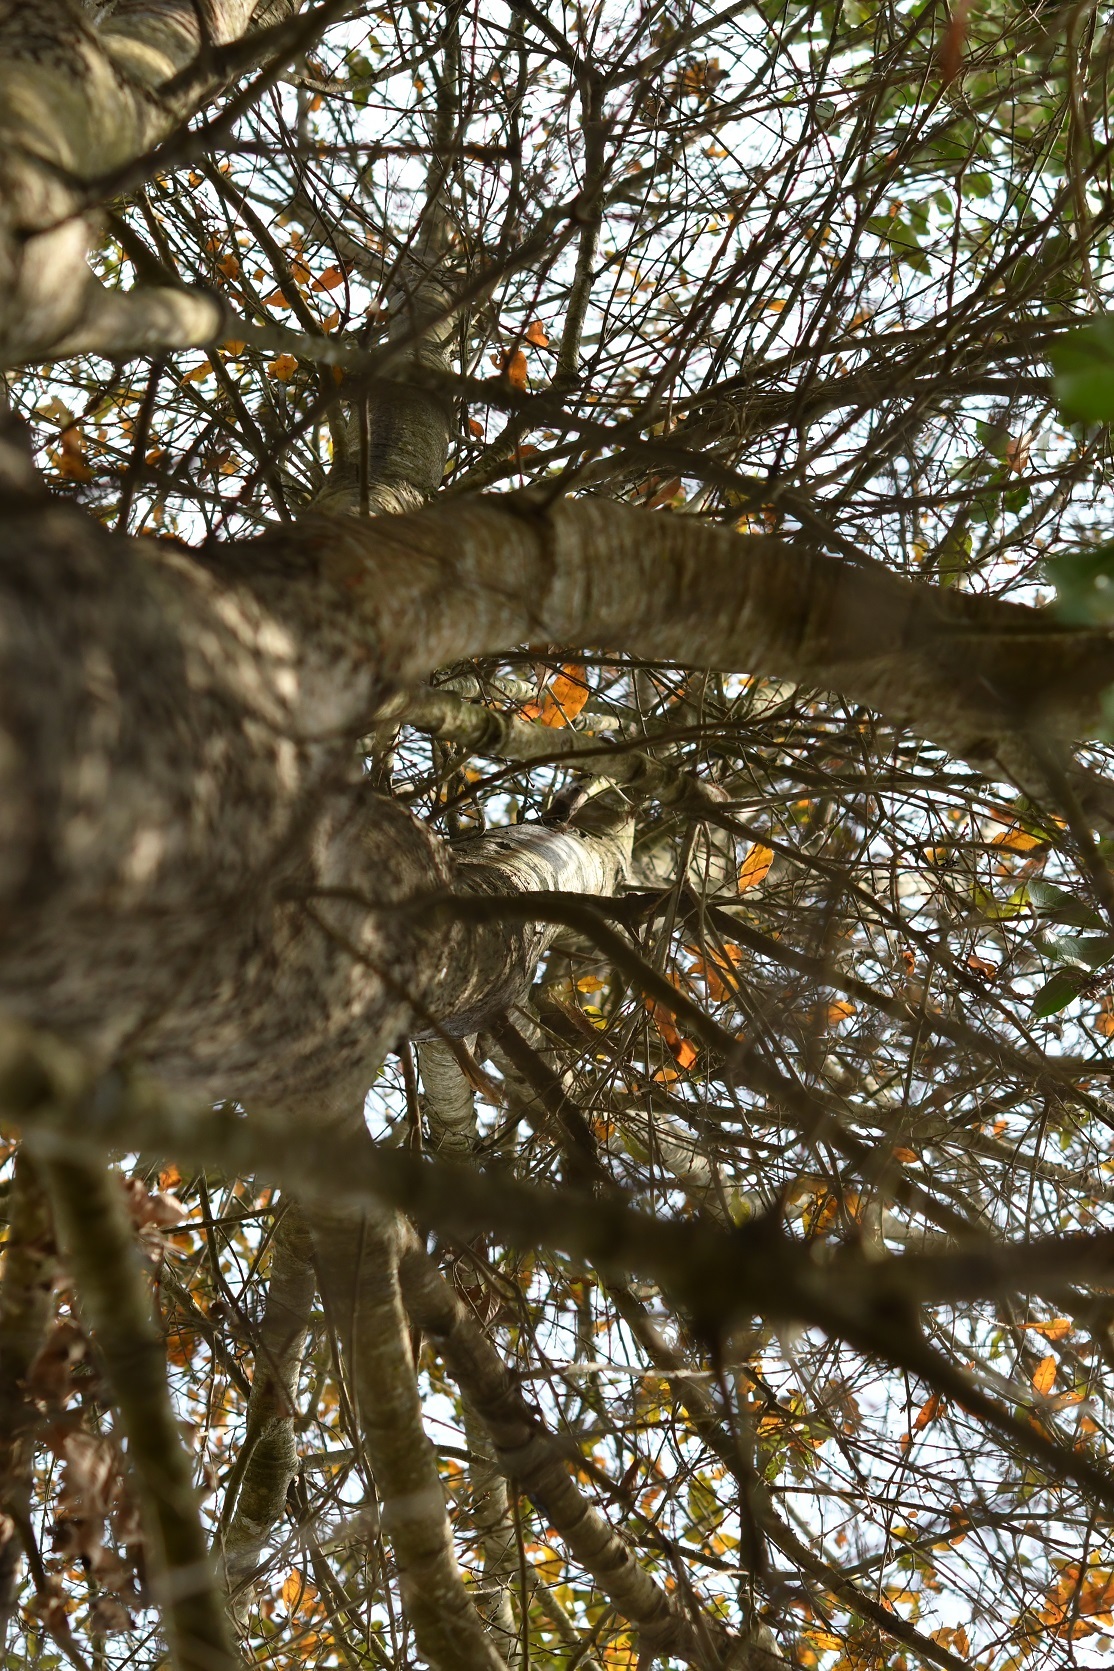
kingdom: Plantae
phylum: Tracheophyta
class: Magnoliopsida
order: Fagales
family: Fagaceae
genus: Quercus
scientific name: Quercus crispipilis
